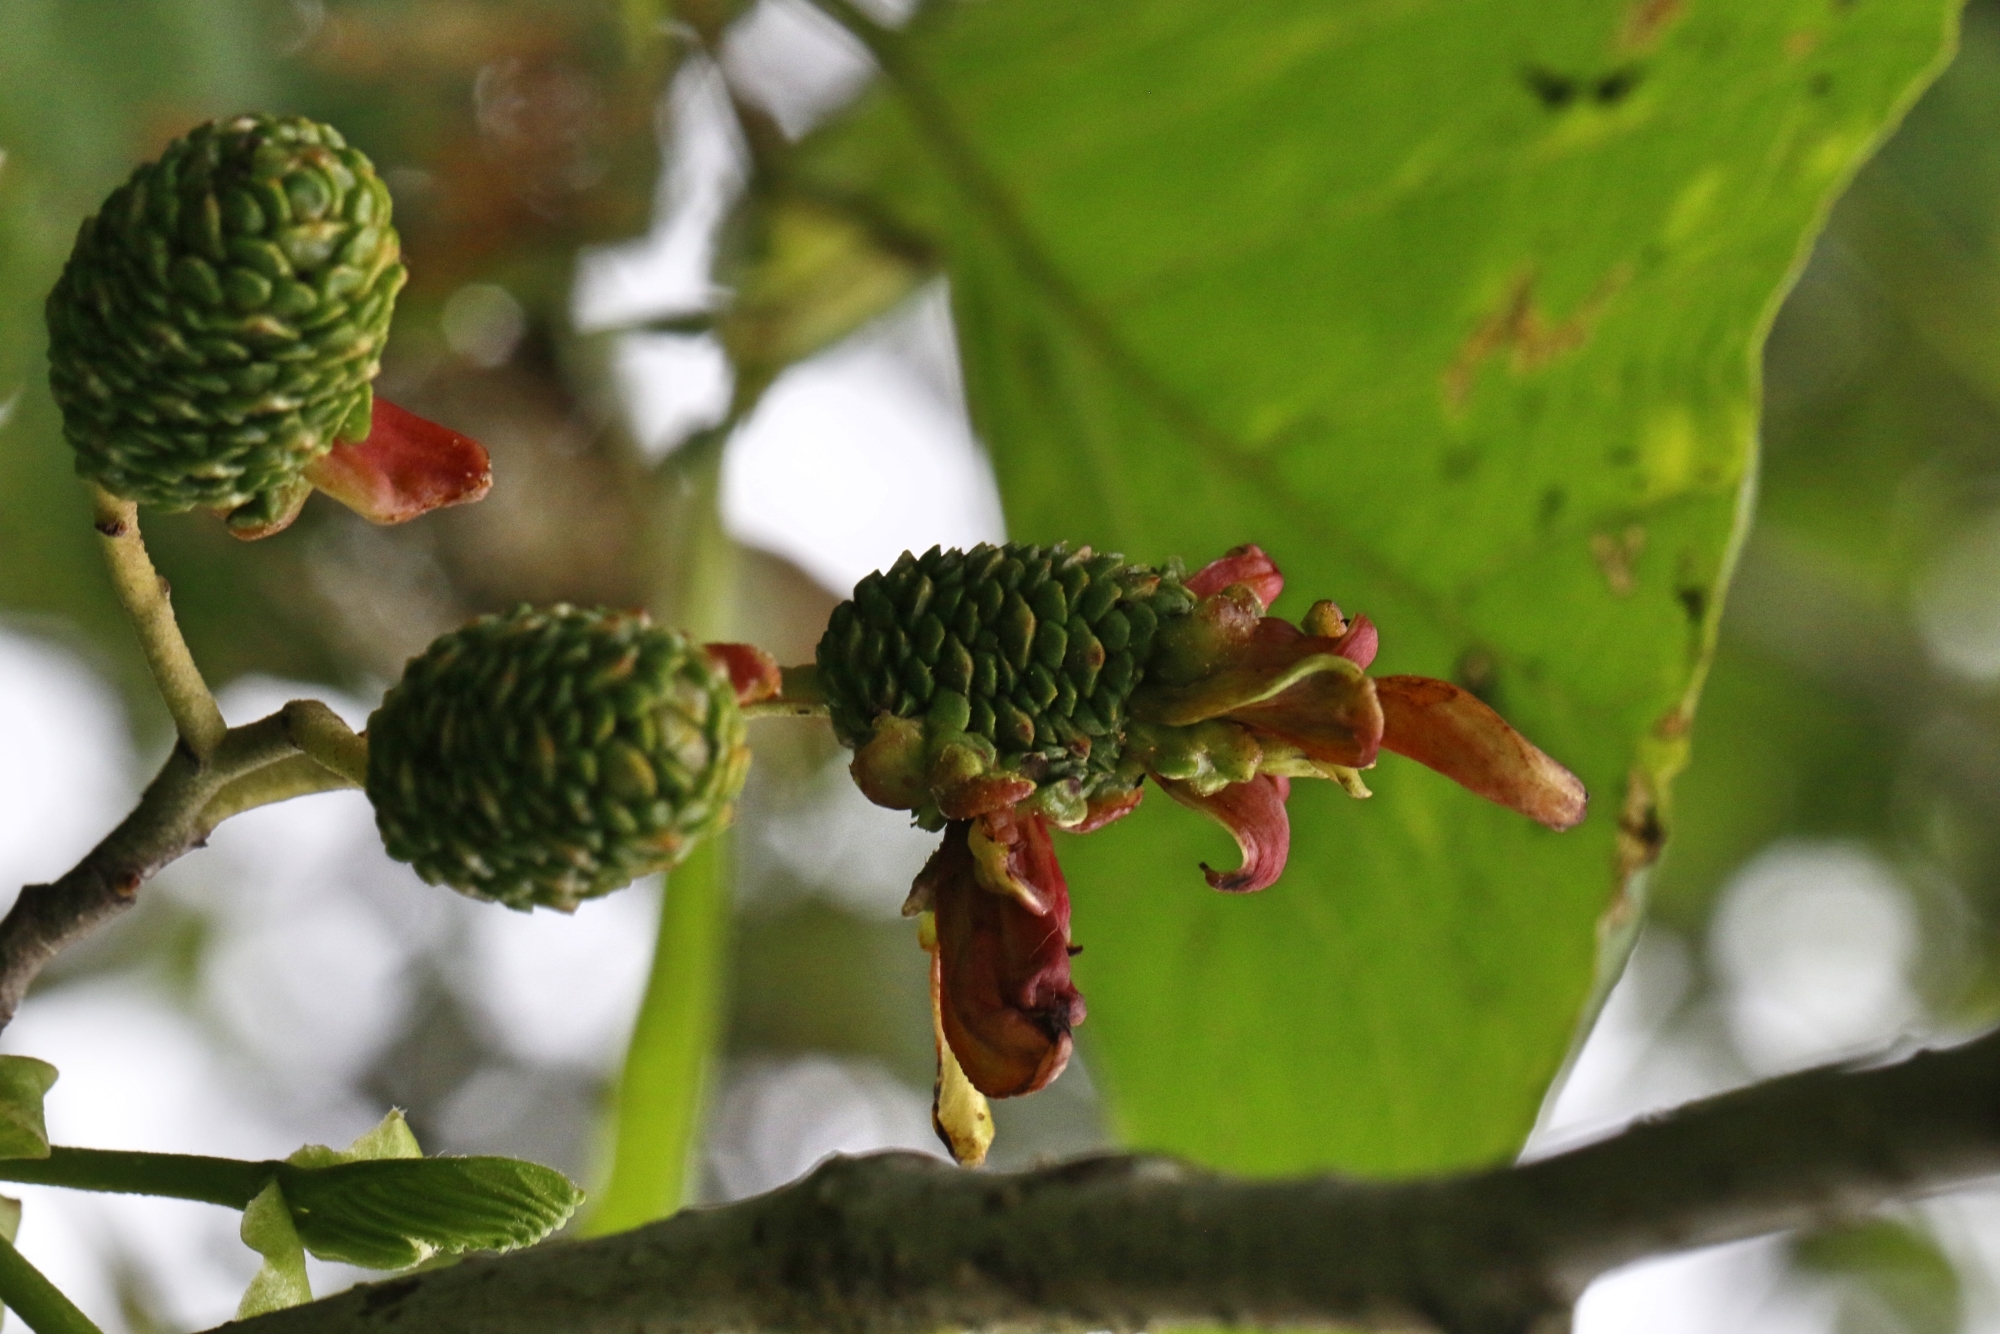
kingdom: Fungi
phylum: Ascomycota
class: Taphrinomycetes
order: Taphrinales
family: Taphrinaceae
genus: Taphrina
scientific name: Taphrina alni
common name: Alder tongue
